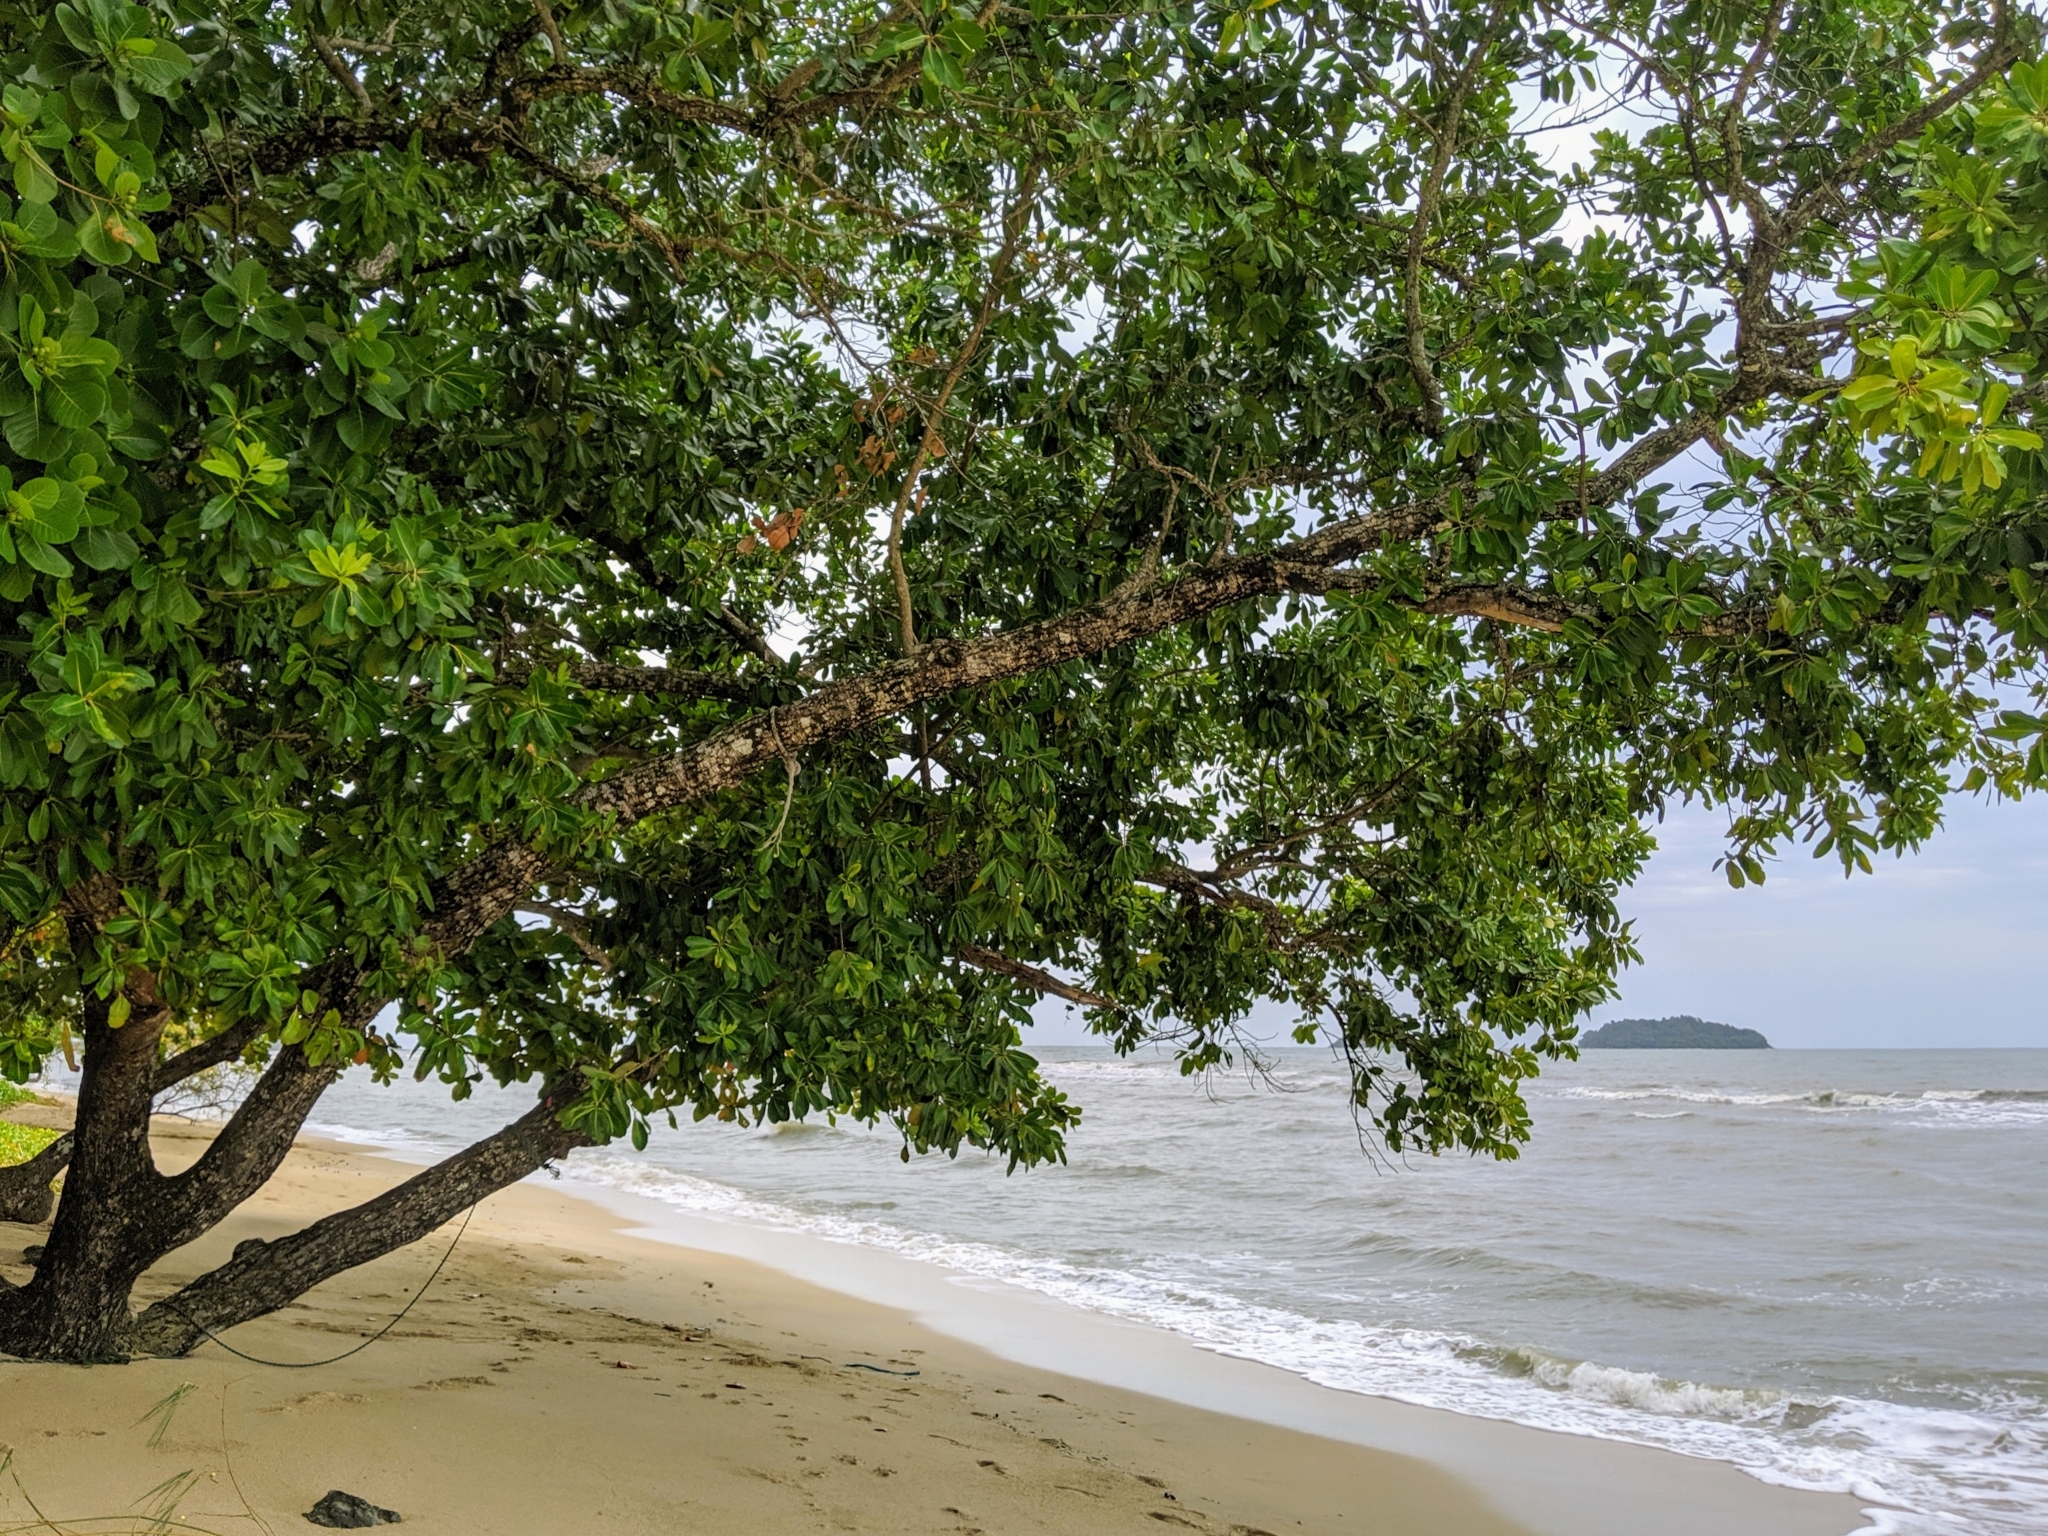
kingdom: Plantae
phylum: Tracheophyta
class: Magnoliopsida
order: Malpighiales
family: Calophyllaceae
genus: Calophyllum
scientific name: Calophyllum inophyllum
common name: Alexandrian laurel
